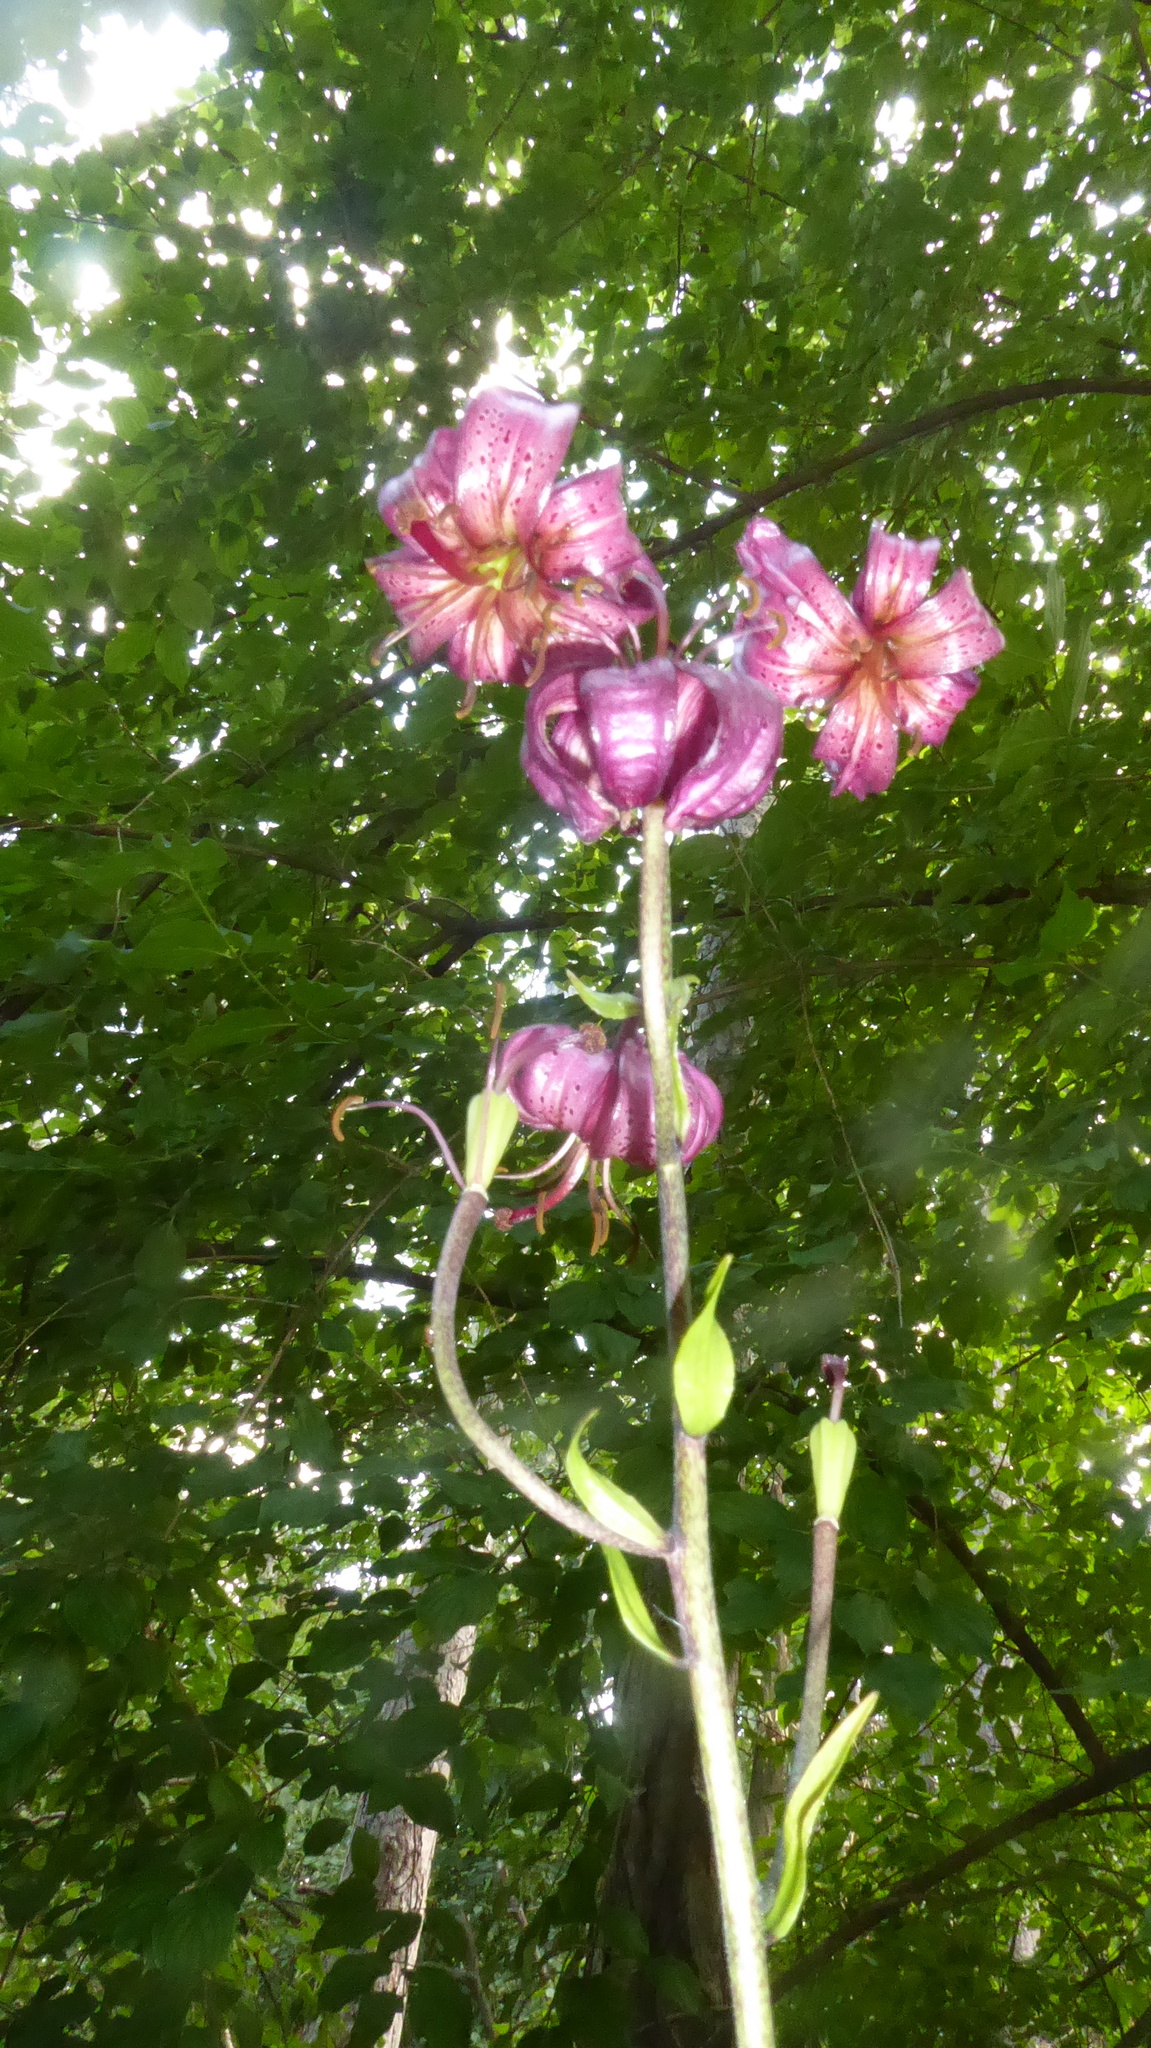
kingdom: Plantae
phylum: Tracheophyta
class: Liliopsida
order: Liliales
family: Liliaceae
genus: Lilium
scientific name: Lilium martagon
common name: Martagon lily
